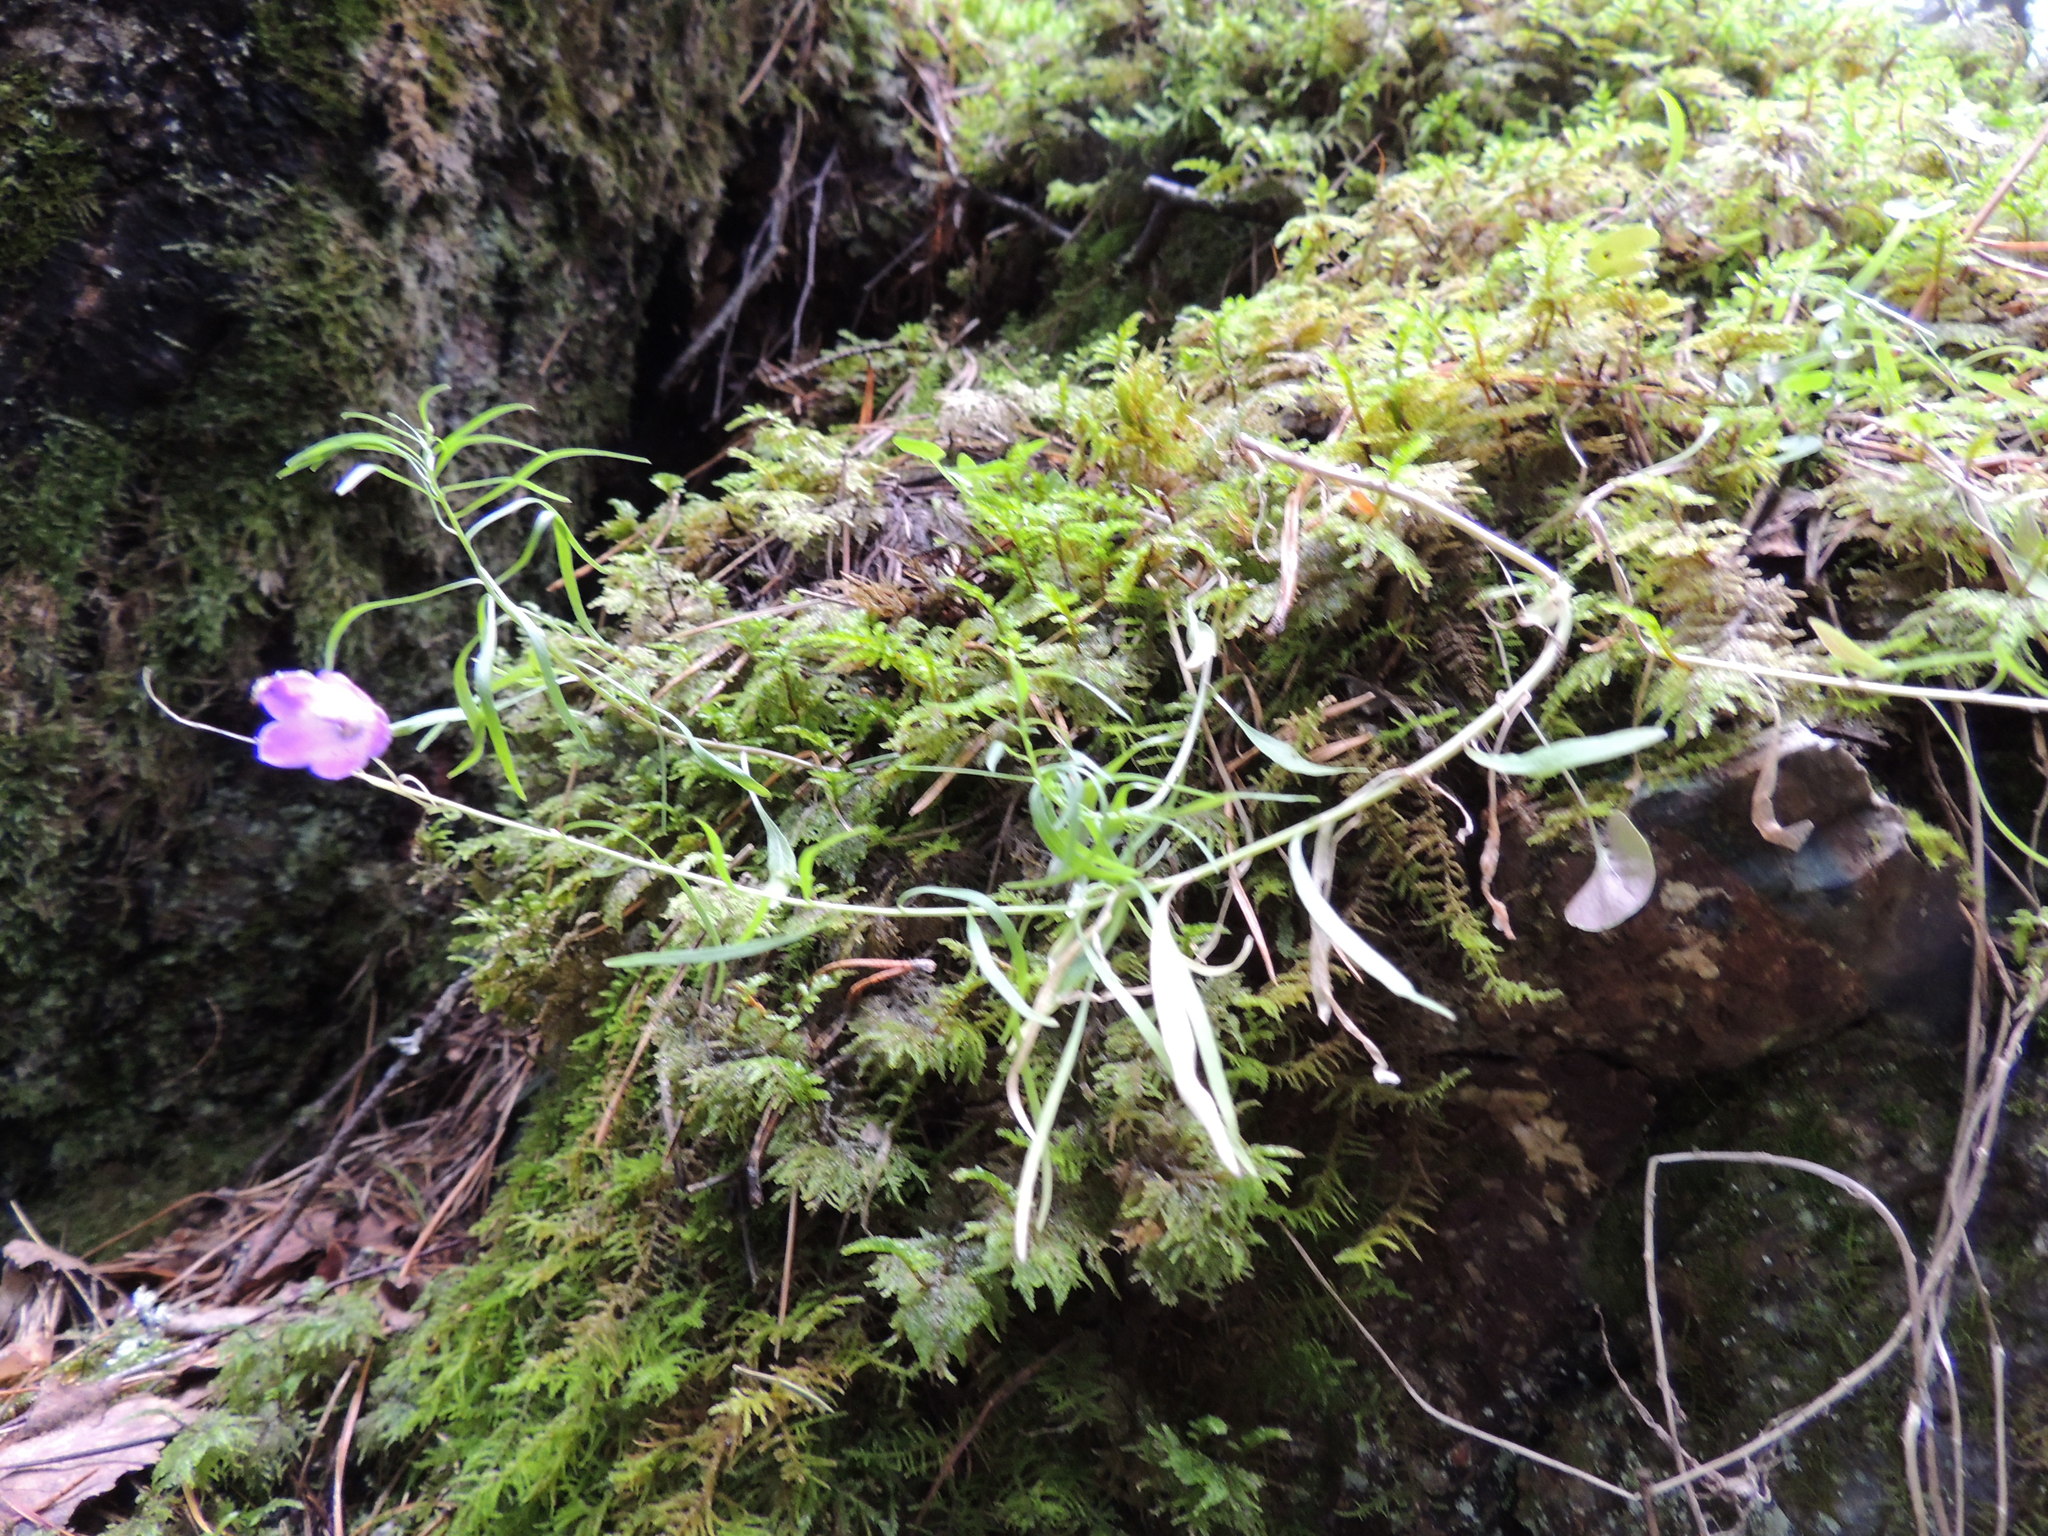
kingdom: Plantae
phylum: Tracheophyta
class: Magnoliopsida
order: Asterales
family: Campanulaceae
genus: Campanula
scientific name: Campanula rotundifolia
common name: Harebell
